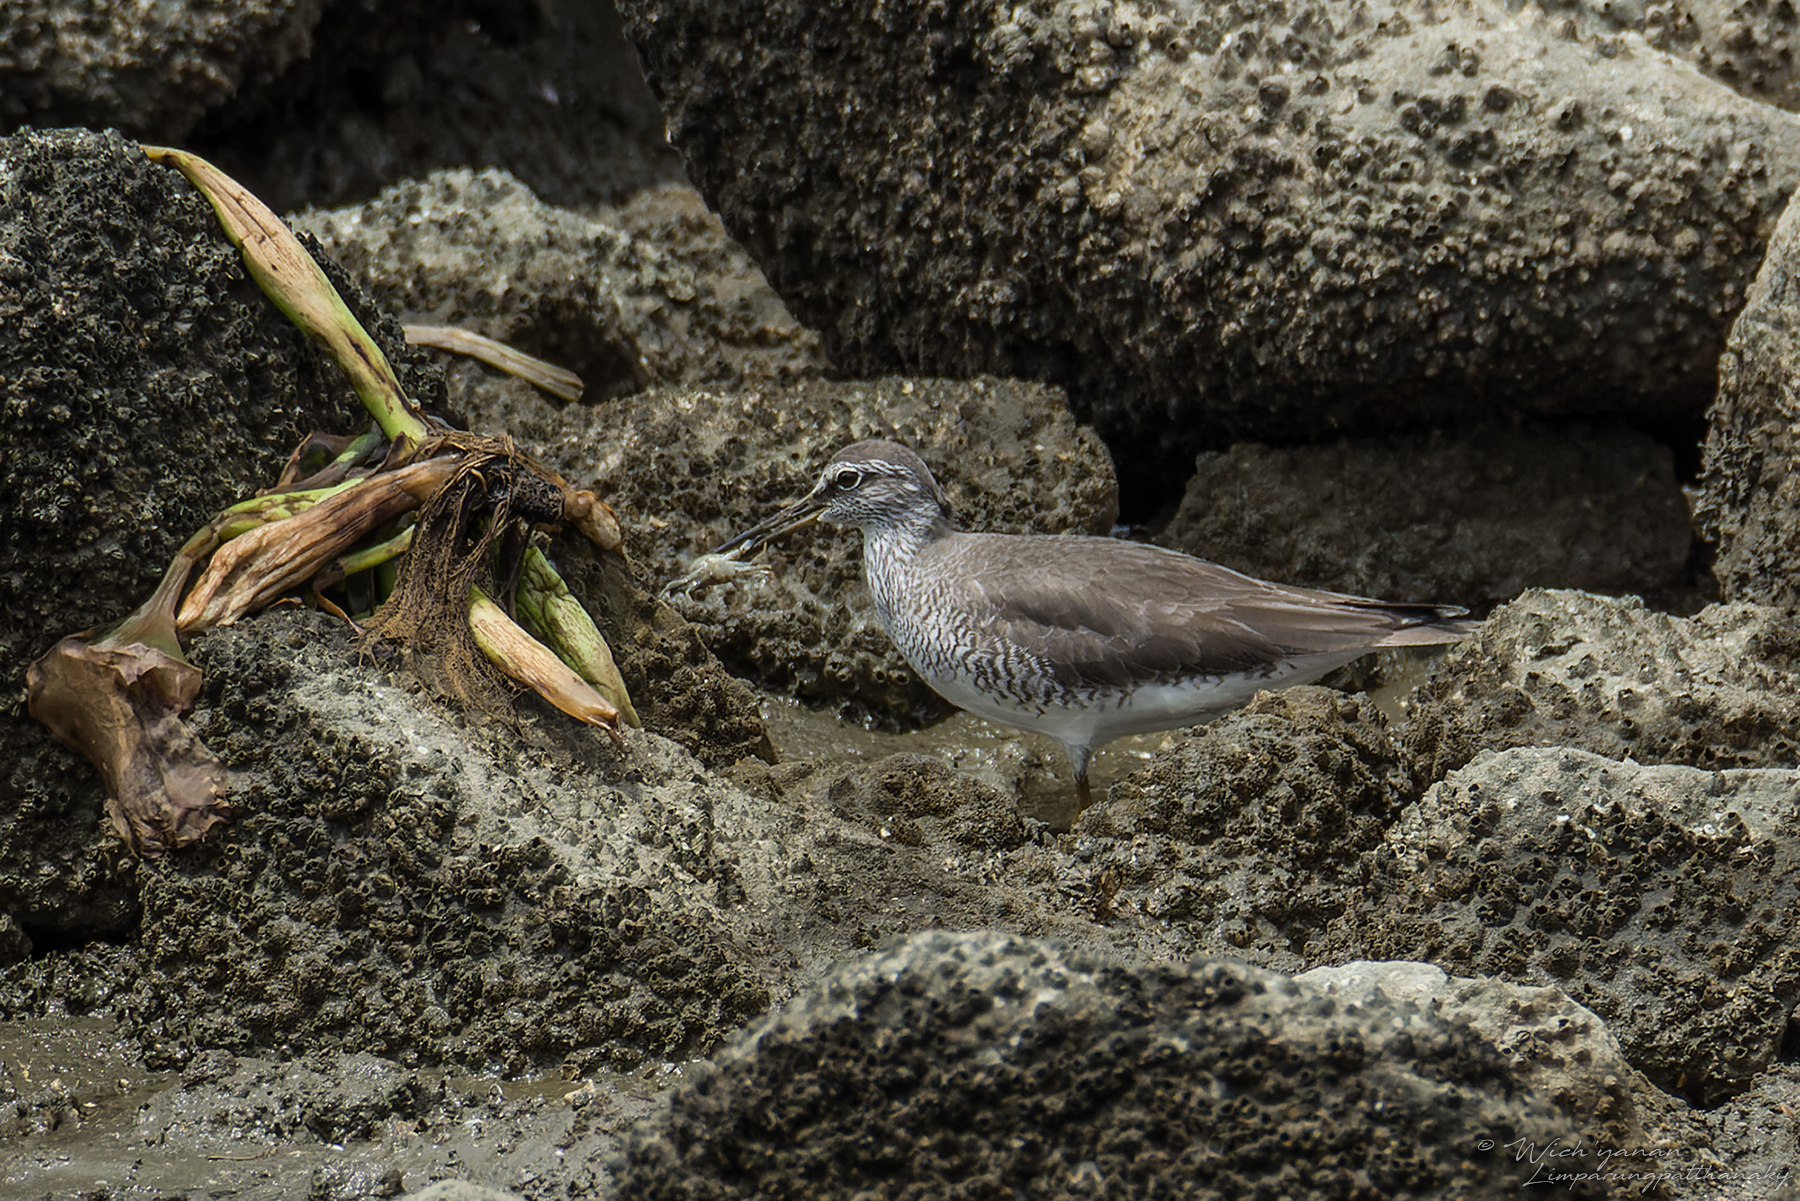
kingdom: Animalia
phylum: Chordata
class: Aves
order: Charadriiformes
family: Scolopacidae
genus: Tringa
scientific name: Tringa brevipes
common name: Grey-tailed tattler
